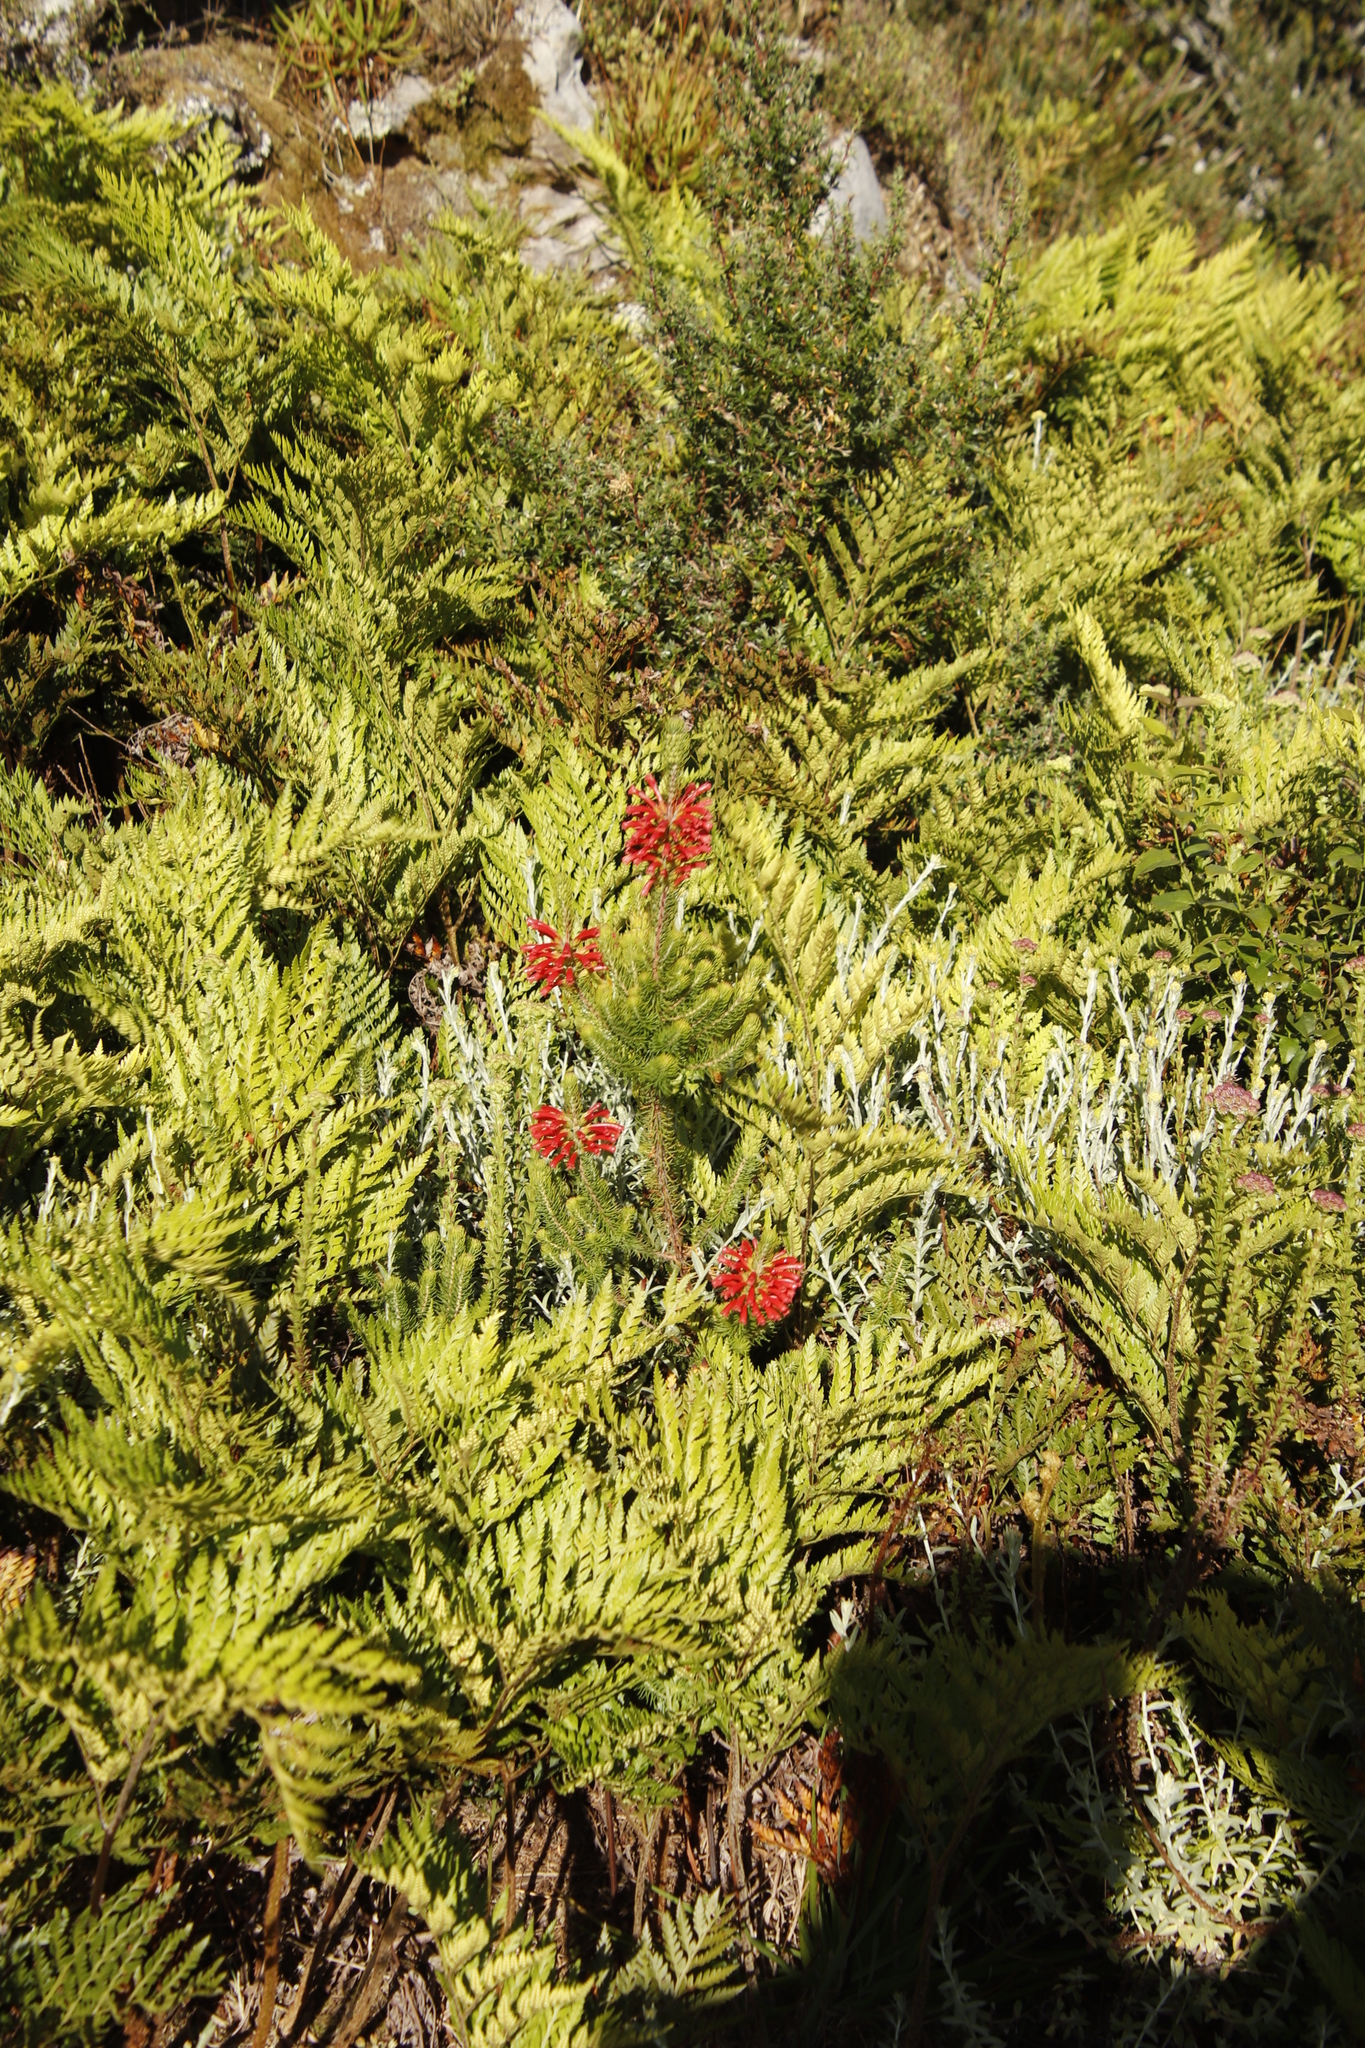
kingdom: Plantae
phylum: Tracheophyta
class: Magnoliopsida
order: Ericales
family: Ericaceae
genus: Erica
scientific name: Erica abietina
